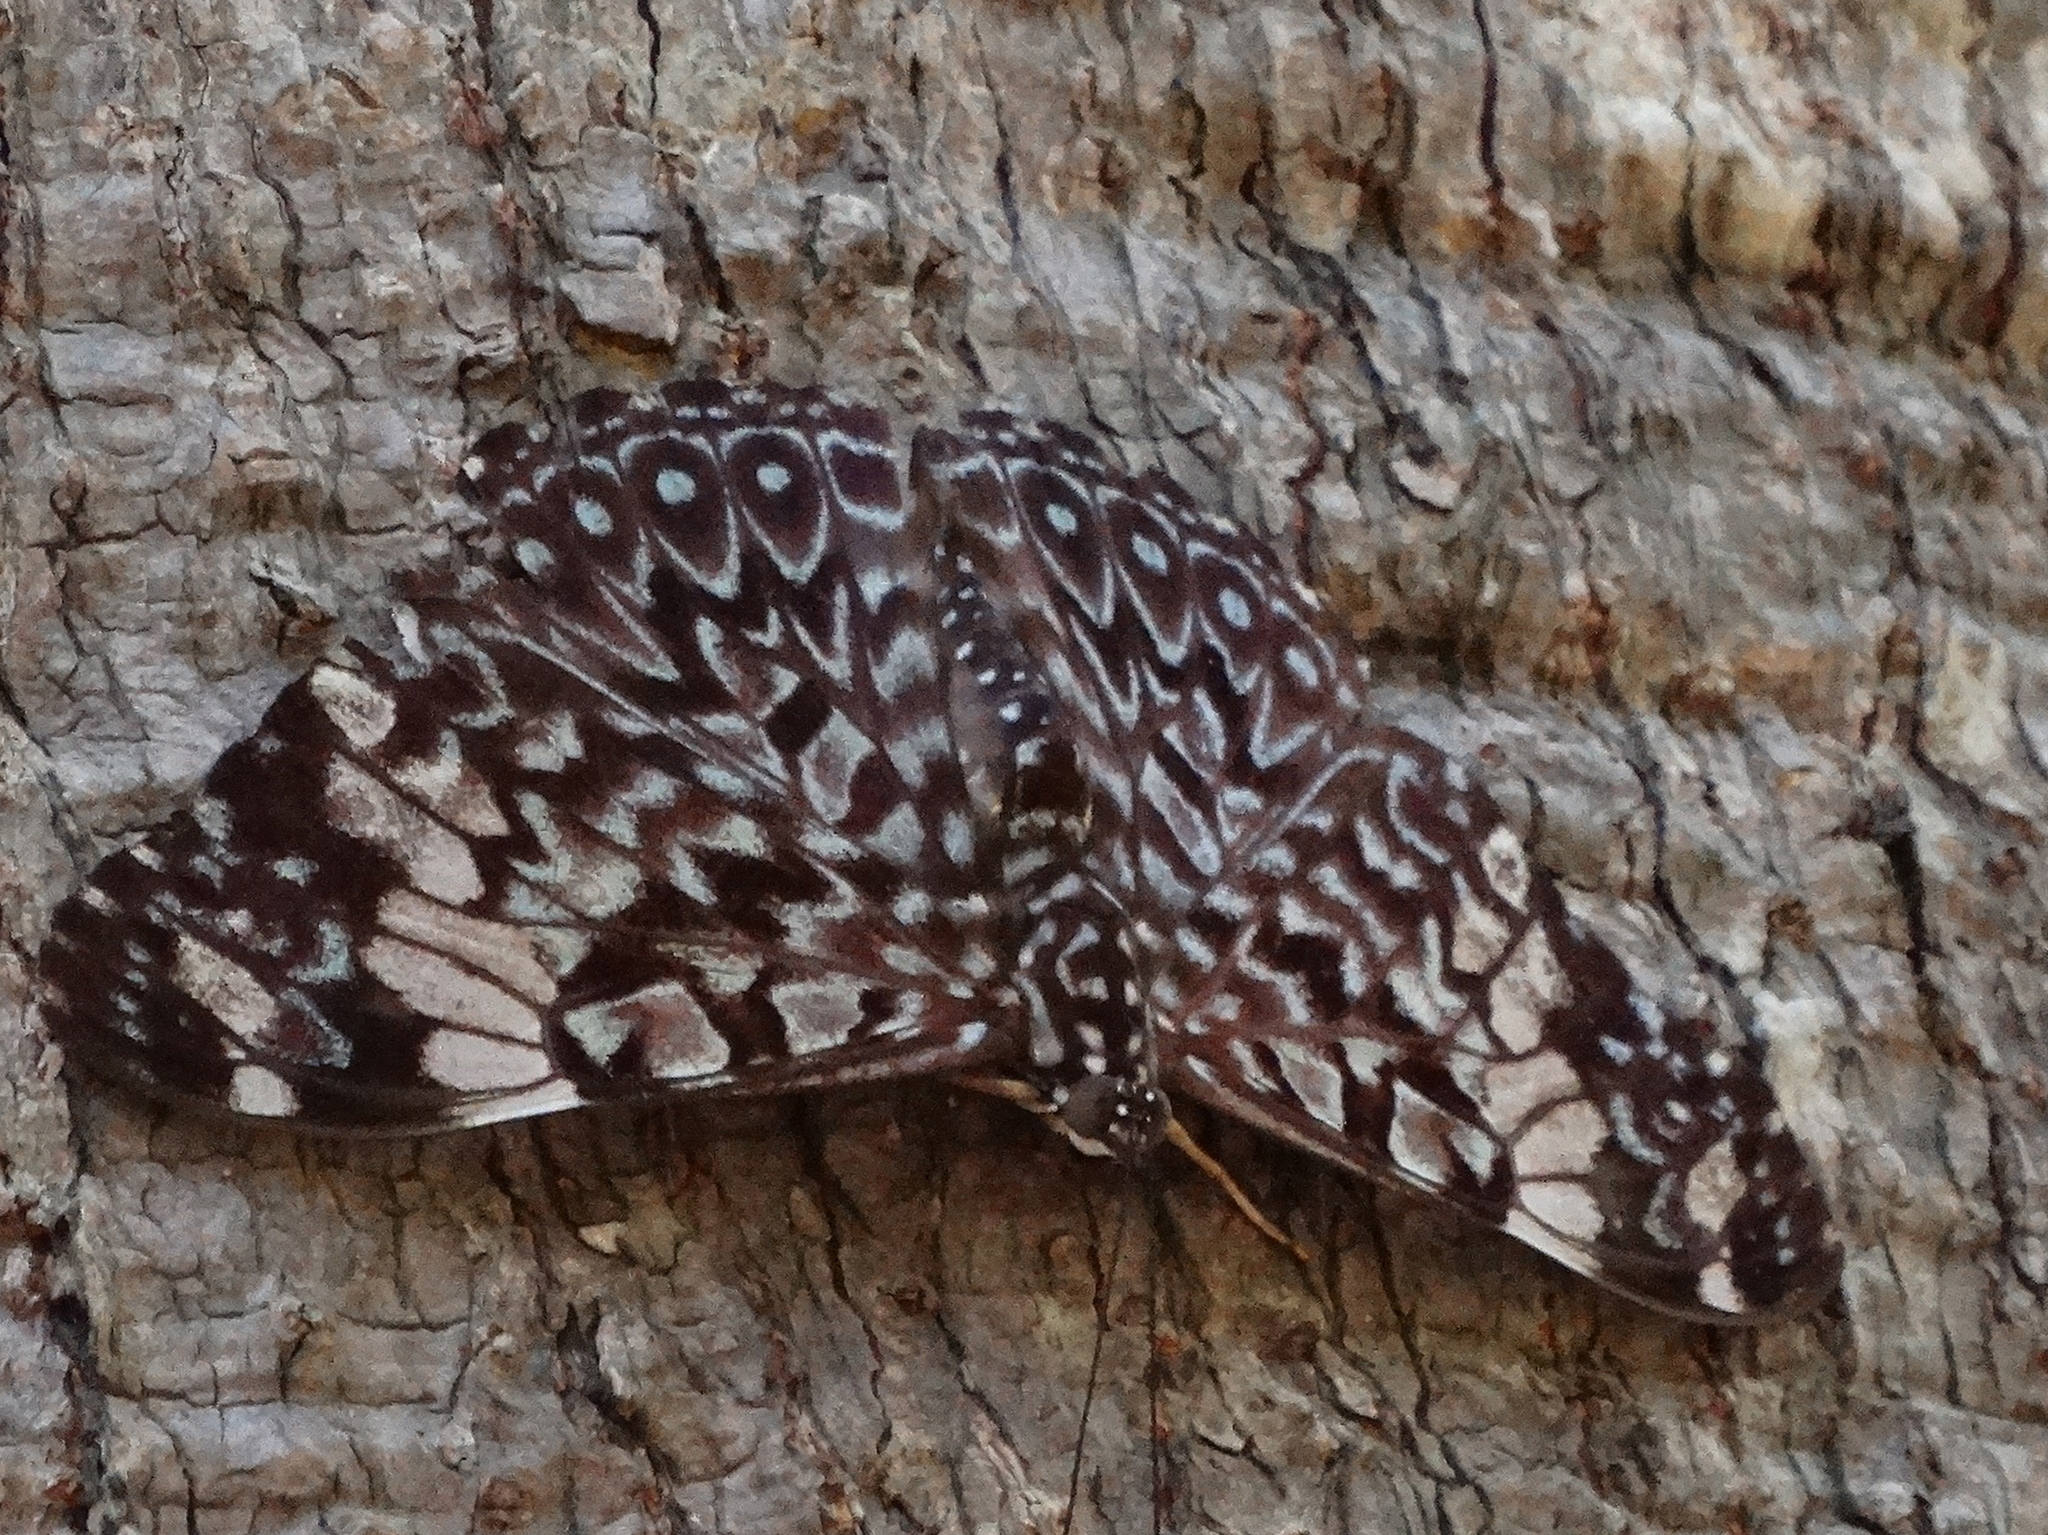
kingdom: Animalia
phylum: Arthropoda
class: Insecta
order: Lepidoptera
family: Nymphalidae
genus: Hamadryas
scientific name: Hamadryas amphinome
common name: Red cracker
